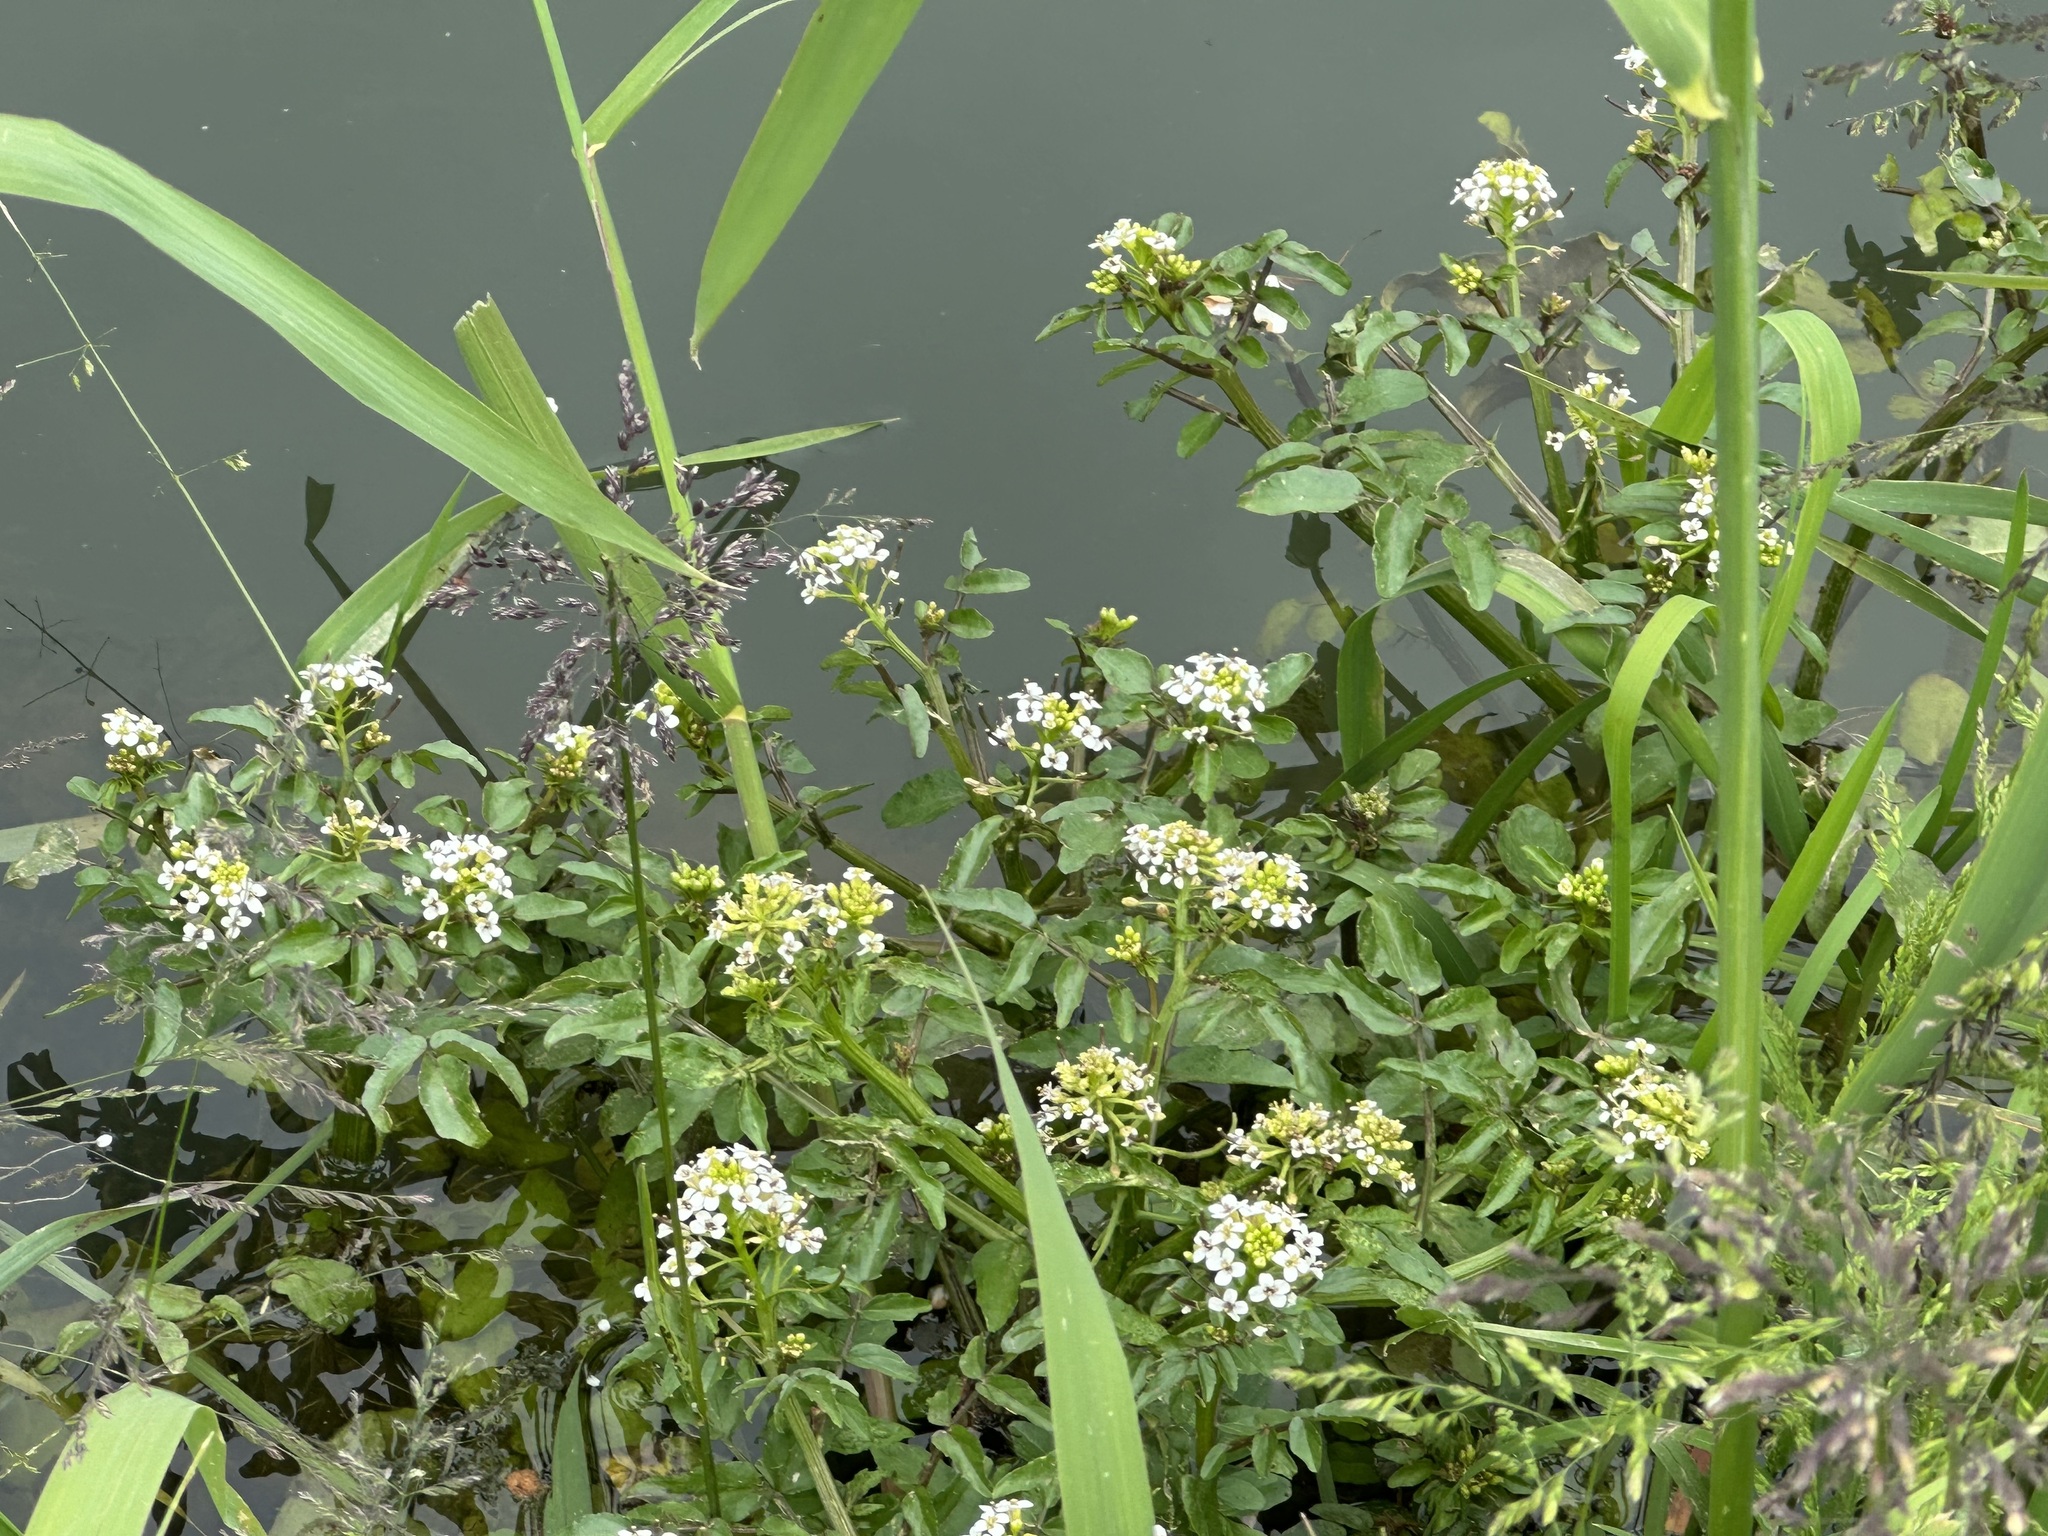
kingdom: Plantae
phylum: Tracheophyta
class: Magnoliopsida
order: Brassicales
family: Brassicaceae
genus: Nasturtium
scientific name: Nasturtium officinale
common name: Watercress
